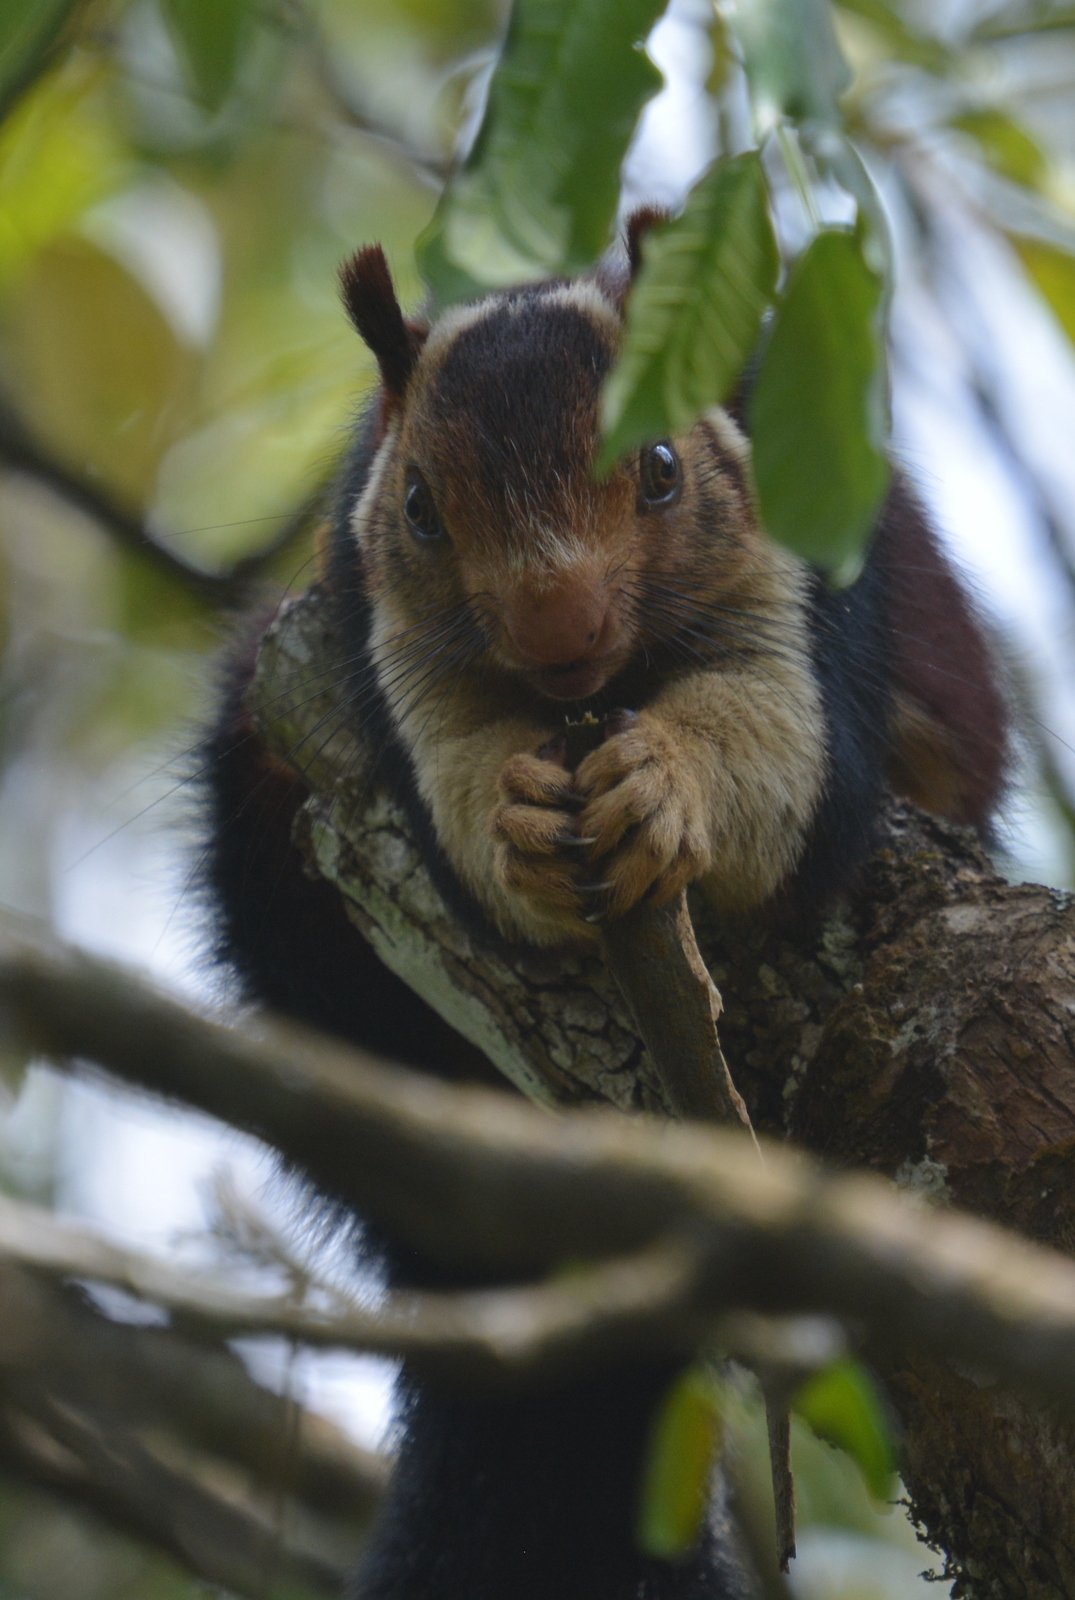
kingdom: Animalia
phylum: Chordata
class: Mammalia
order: Rodentia
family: Sciuridae
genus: Ratufa
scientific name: Ratufa indica
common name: Indian giant squirrel
